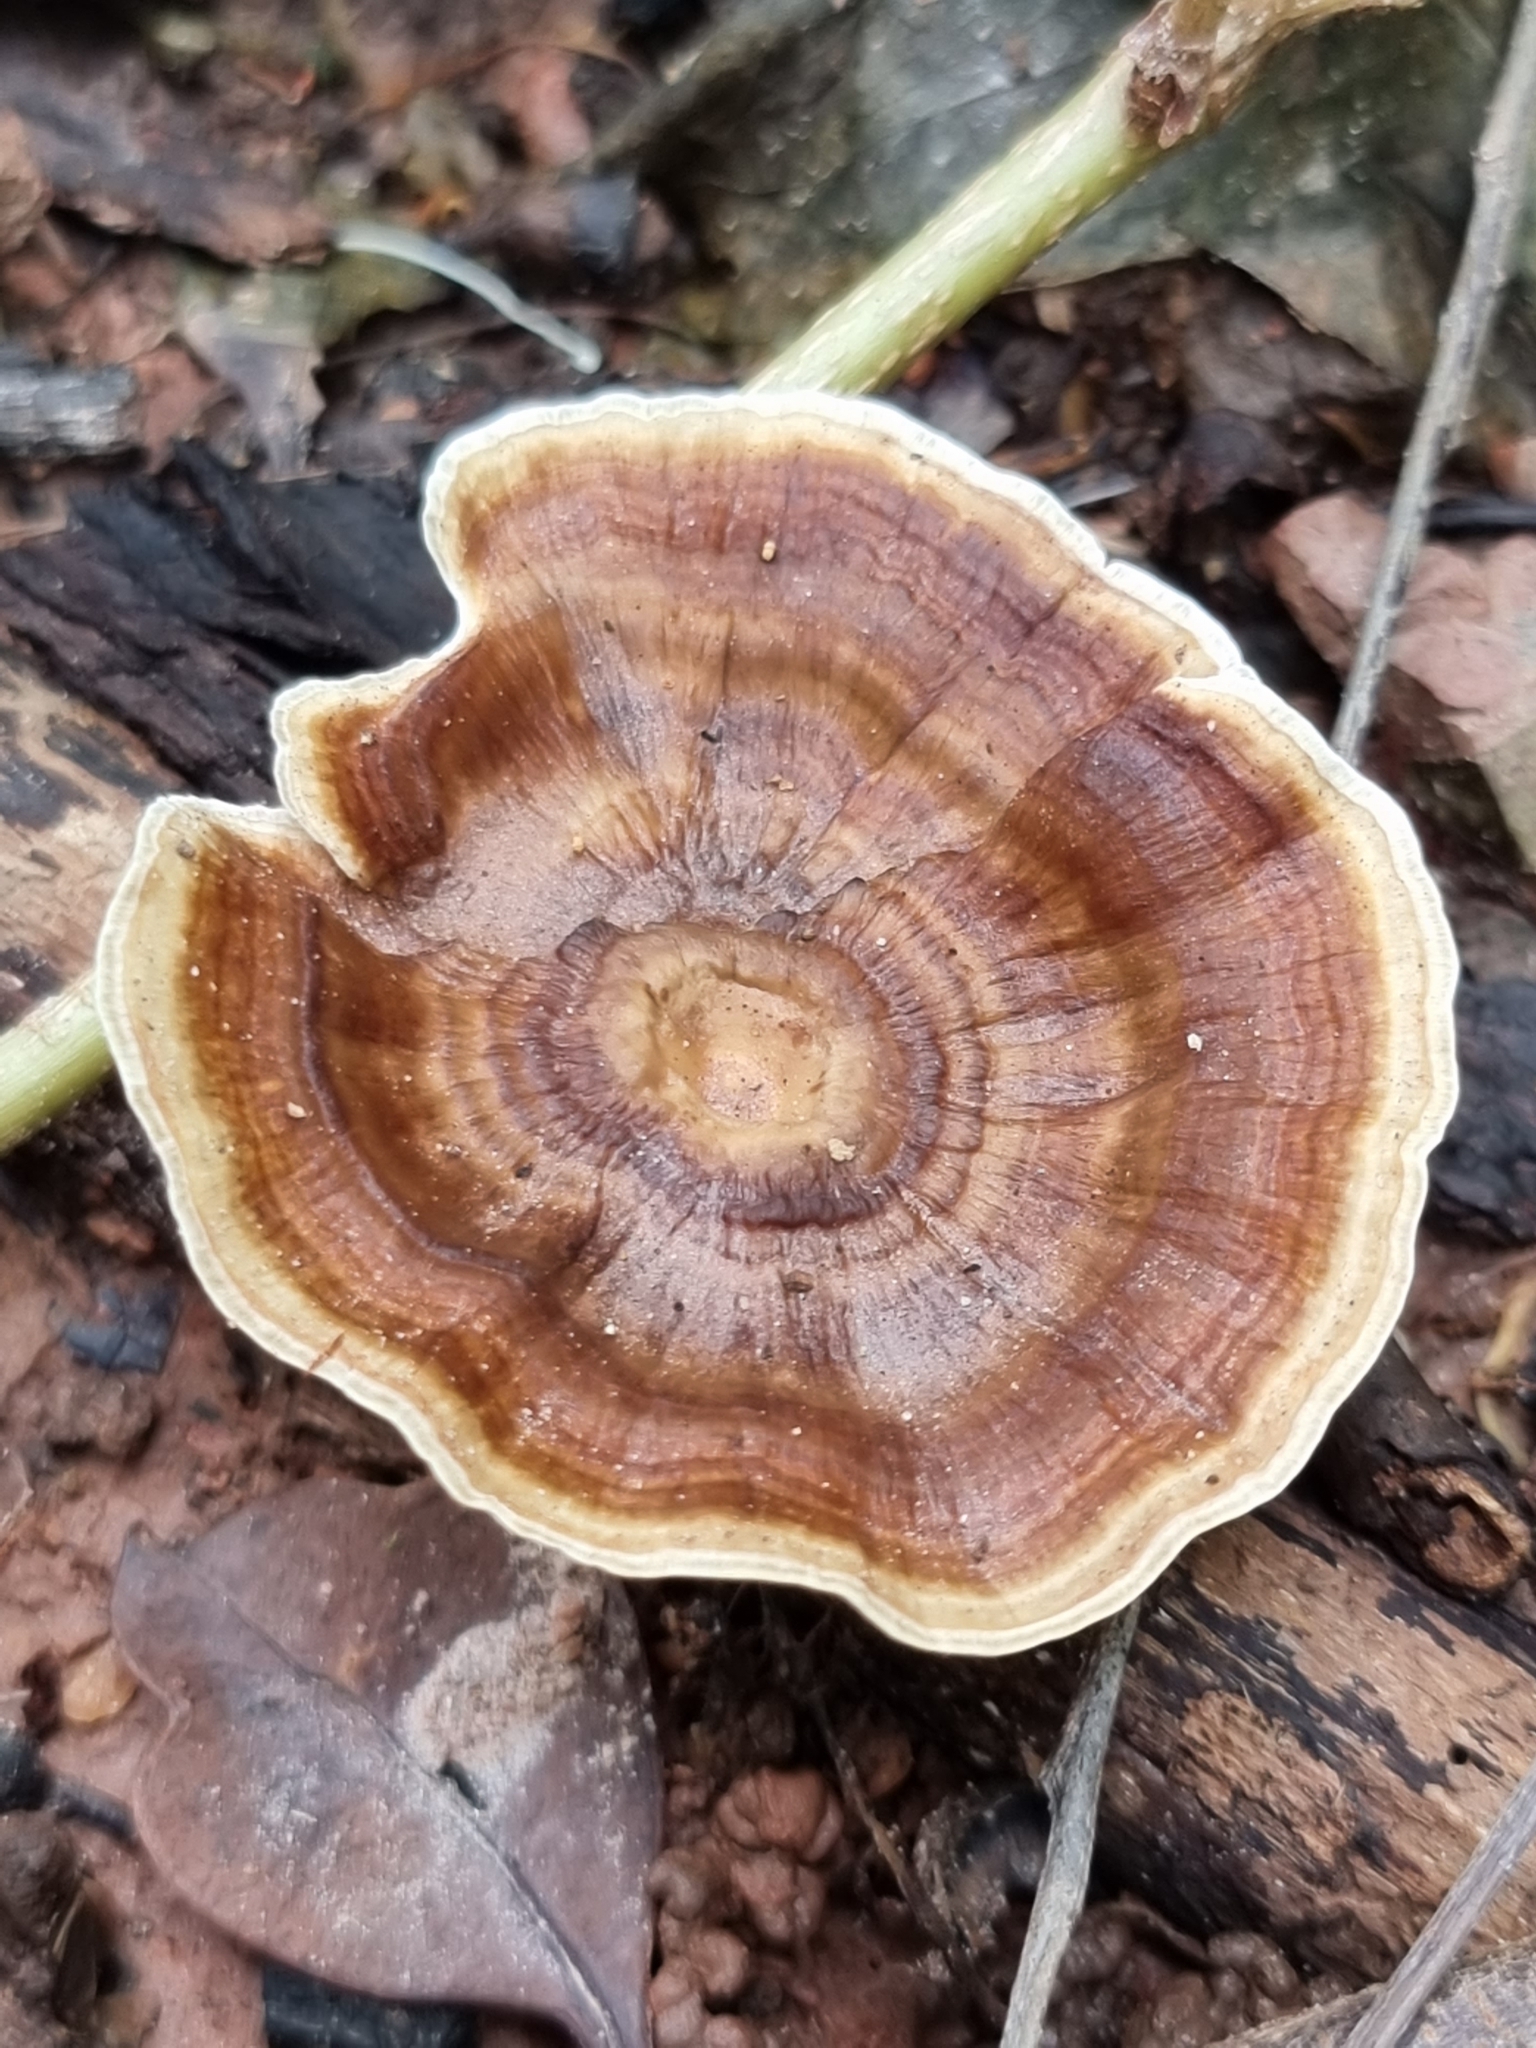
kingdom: Fungi
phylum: Basidiomycota
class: Agaricomycetes
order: Polyporales
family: Polyporaceae
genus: Microporus
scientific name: Microporus xanthopus
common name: Yellow-stemmed micropore
